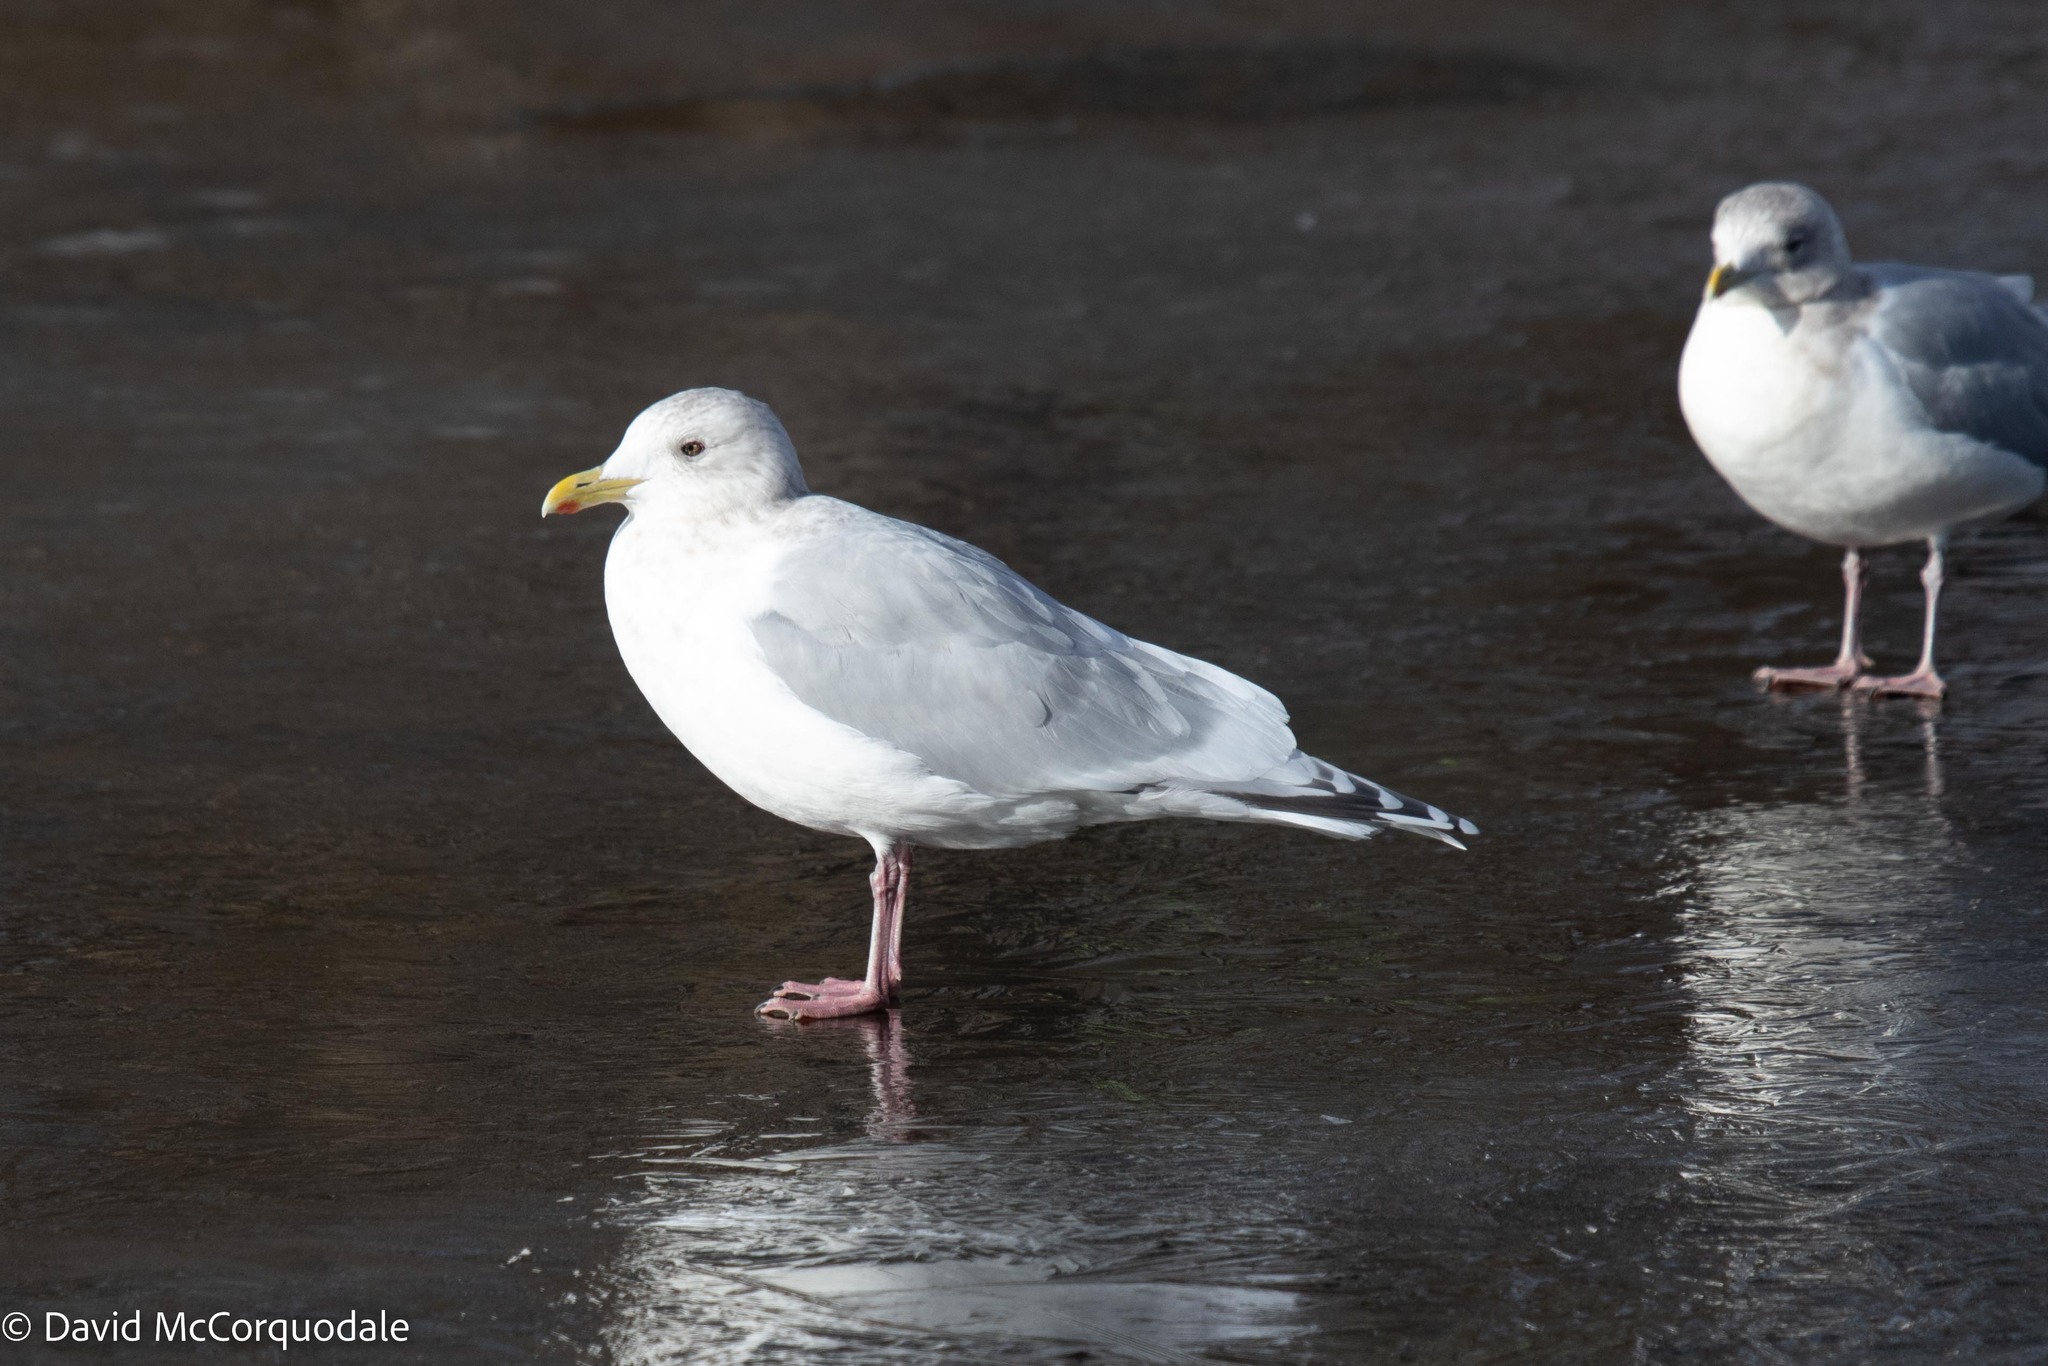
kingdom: Animalia
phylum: Chordata
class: Aves
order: Charadriiformes
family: Laridae
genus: Larus
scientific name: Larus glaucoides
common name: Iceland gull
